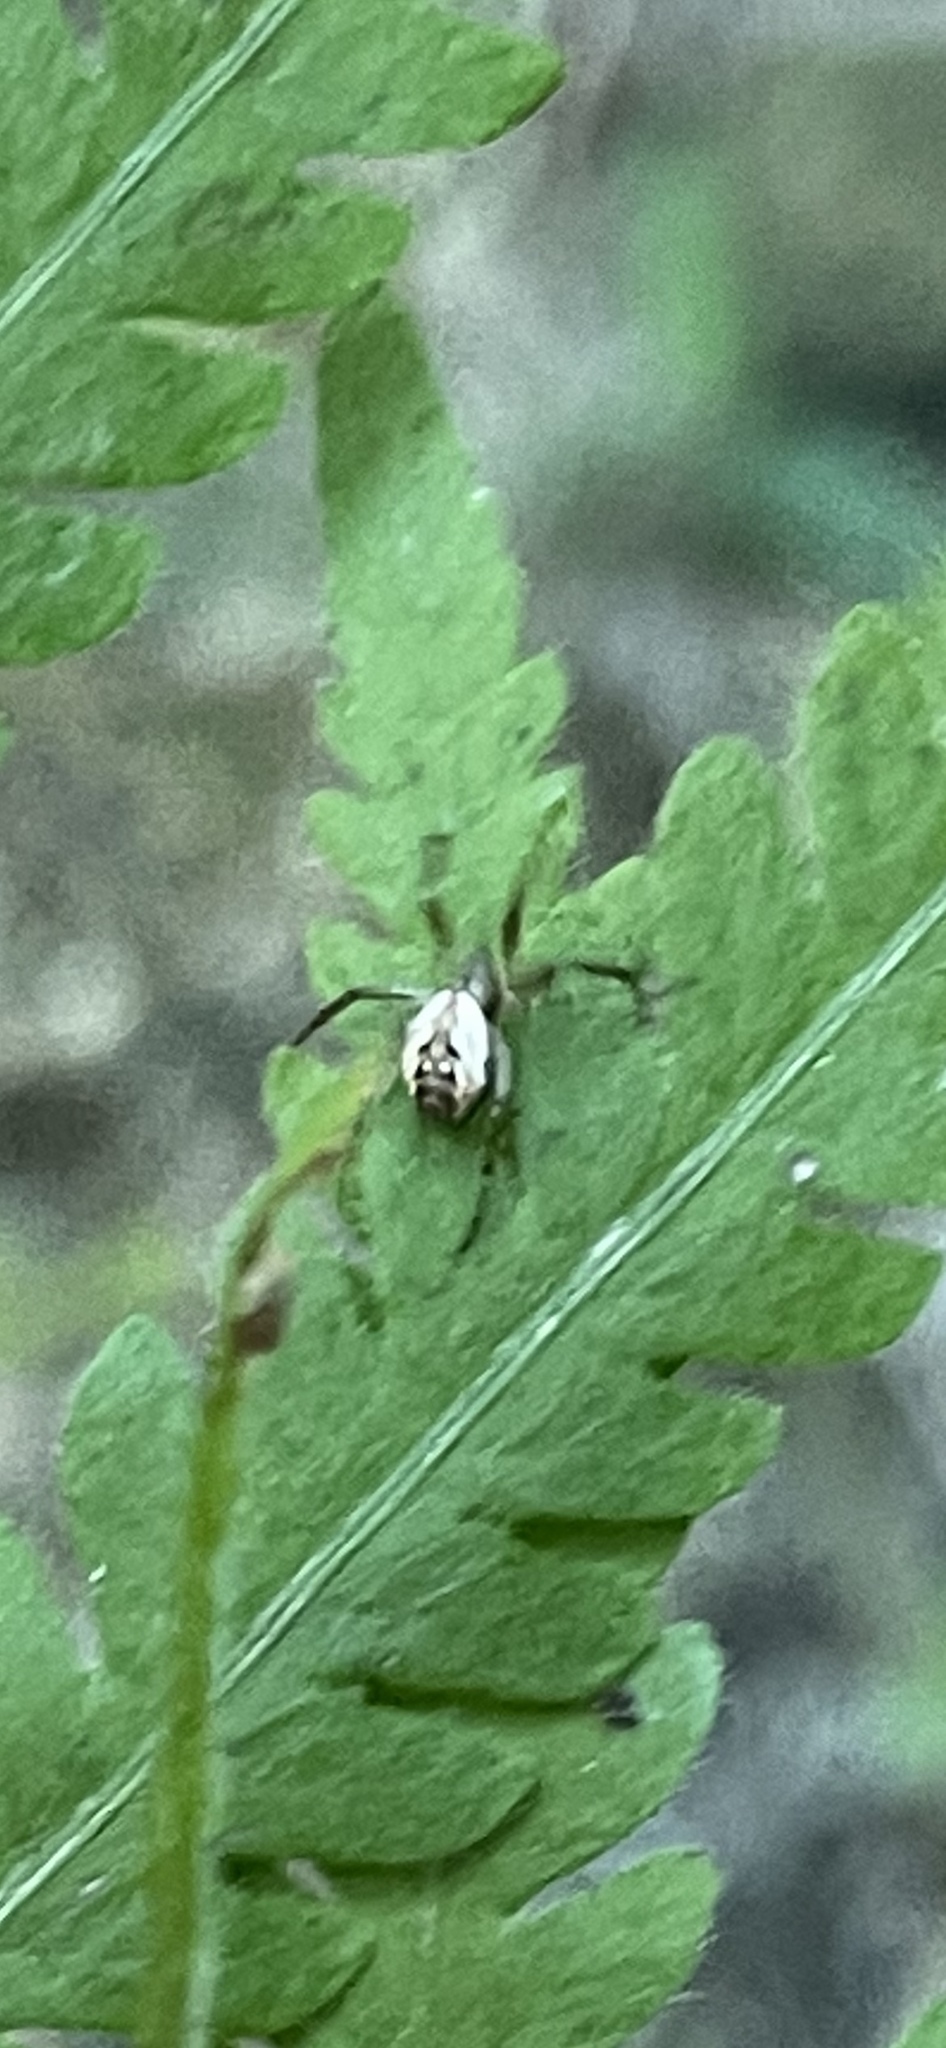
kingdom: Animalia
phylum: Arthropoda
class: Arachnida
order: Araneae
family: Araneidae
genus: Mangora
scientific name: Mangora placida
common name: Tuft-legged orbweaver
